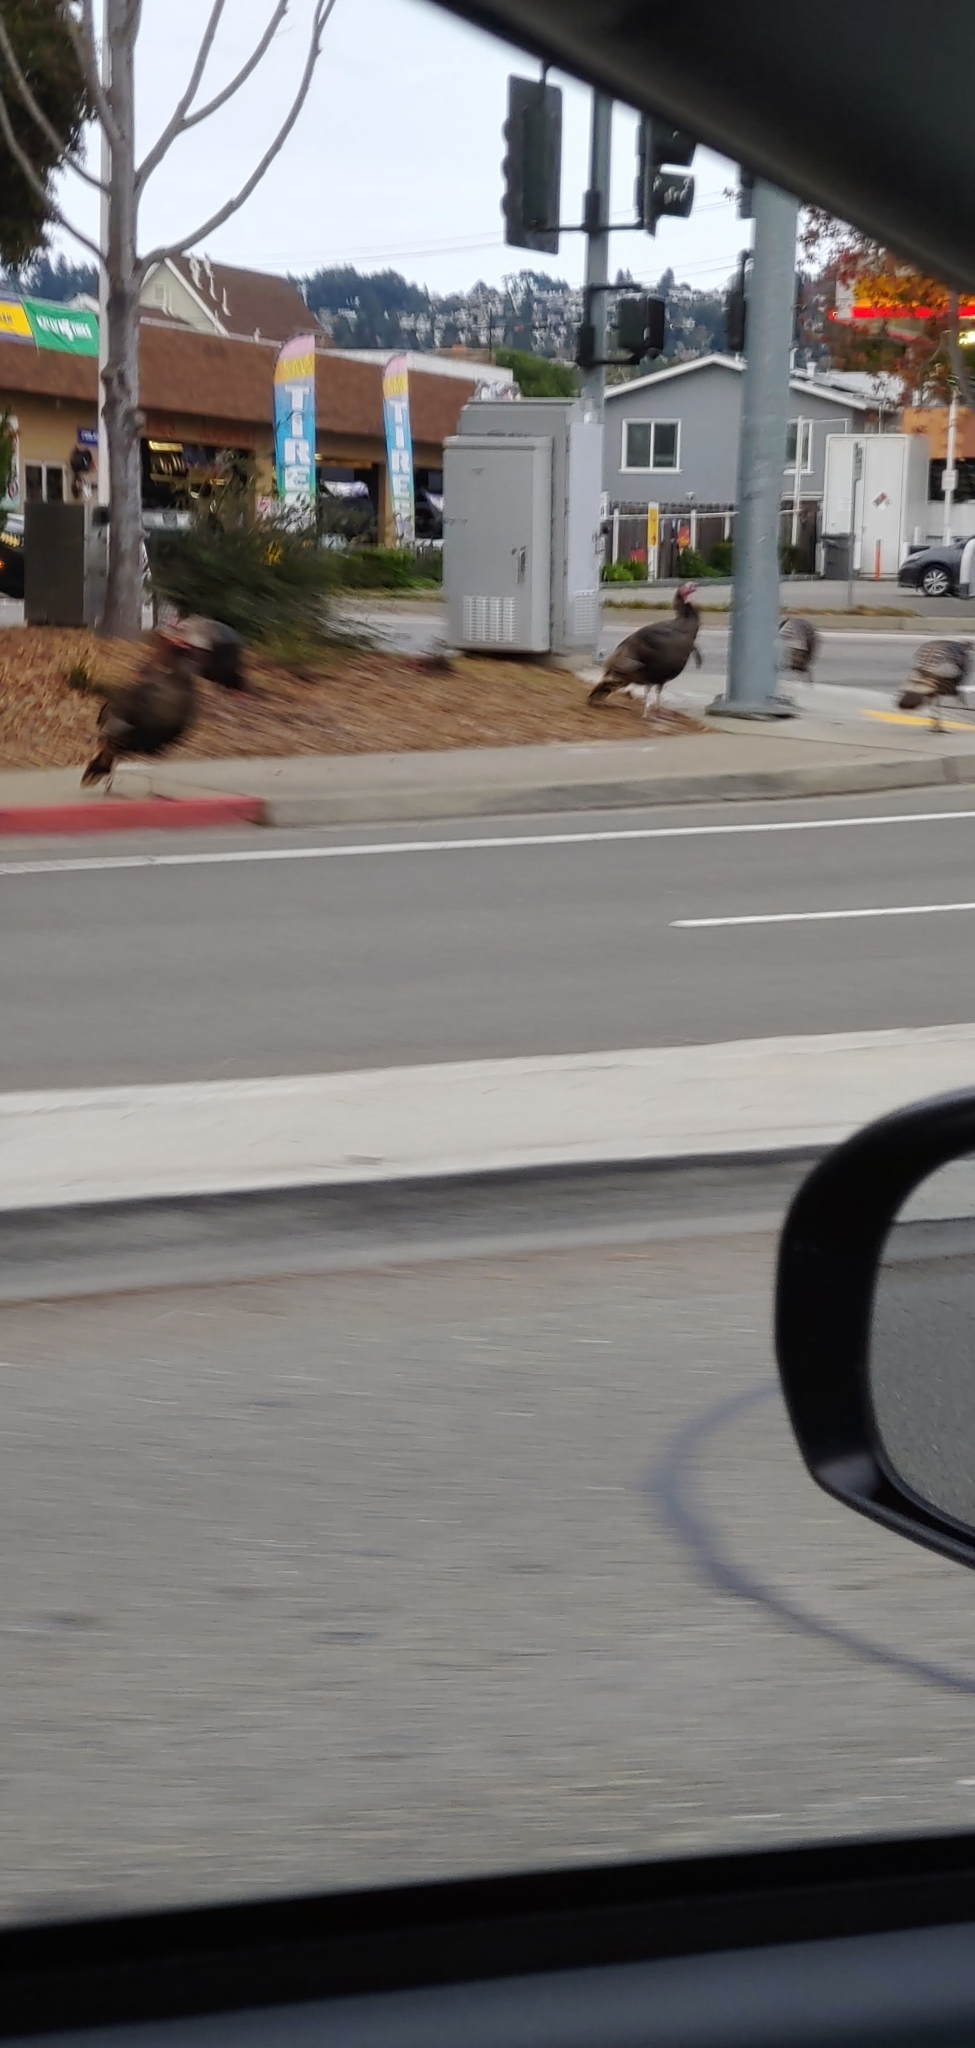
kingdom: Animalia
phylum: Chordata
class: Aves
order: Galliformes
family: Phasianidae
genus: Meleagris
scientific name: Meleagris gallopavo
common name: Wild turkey
